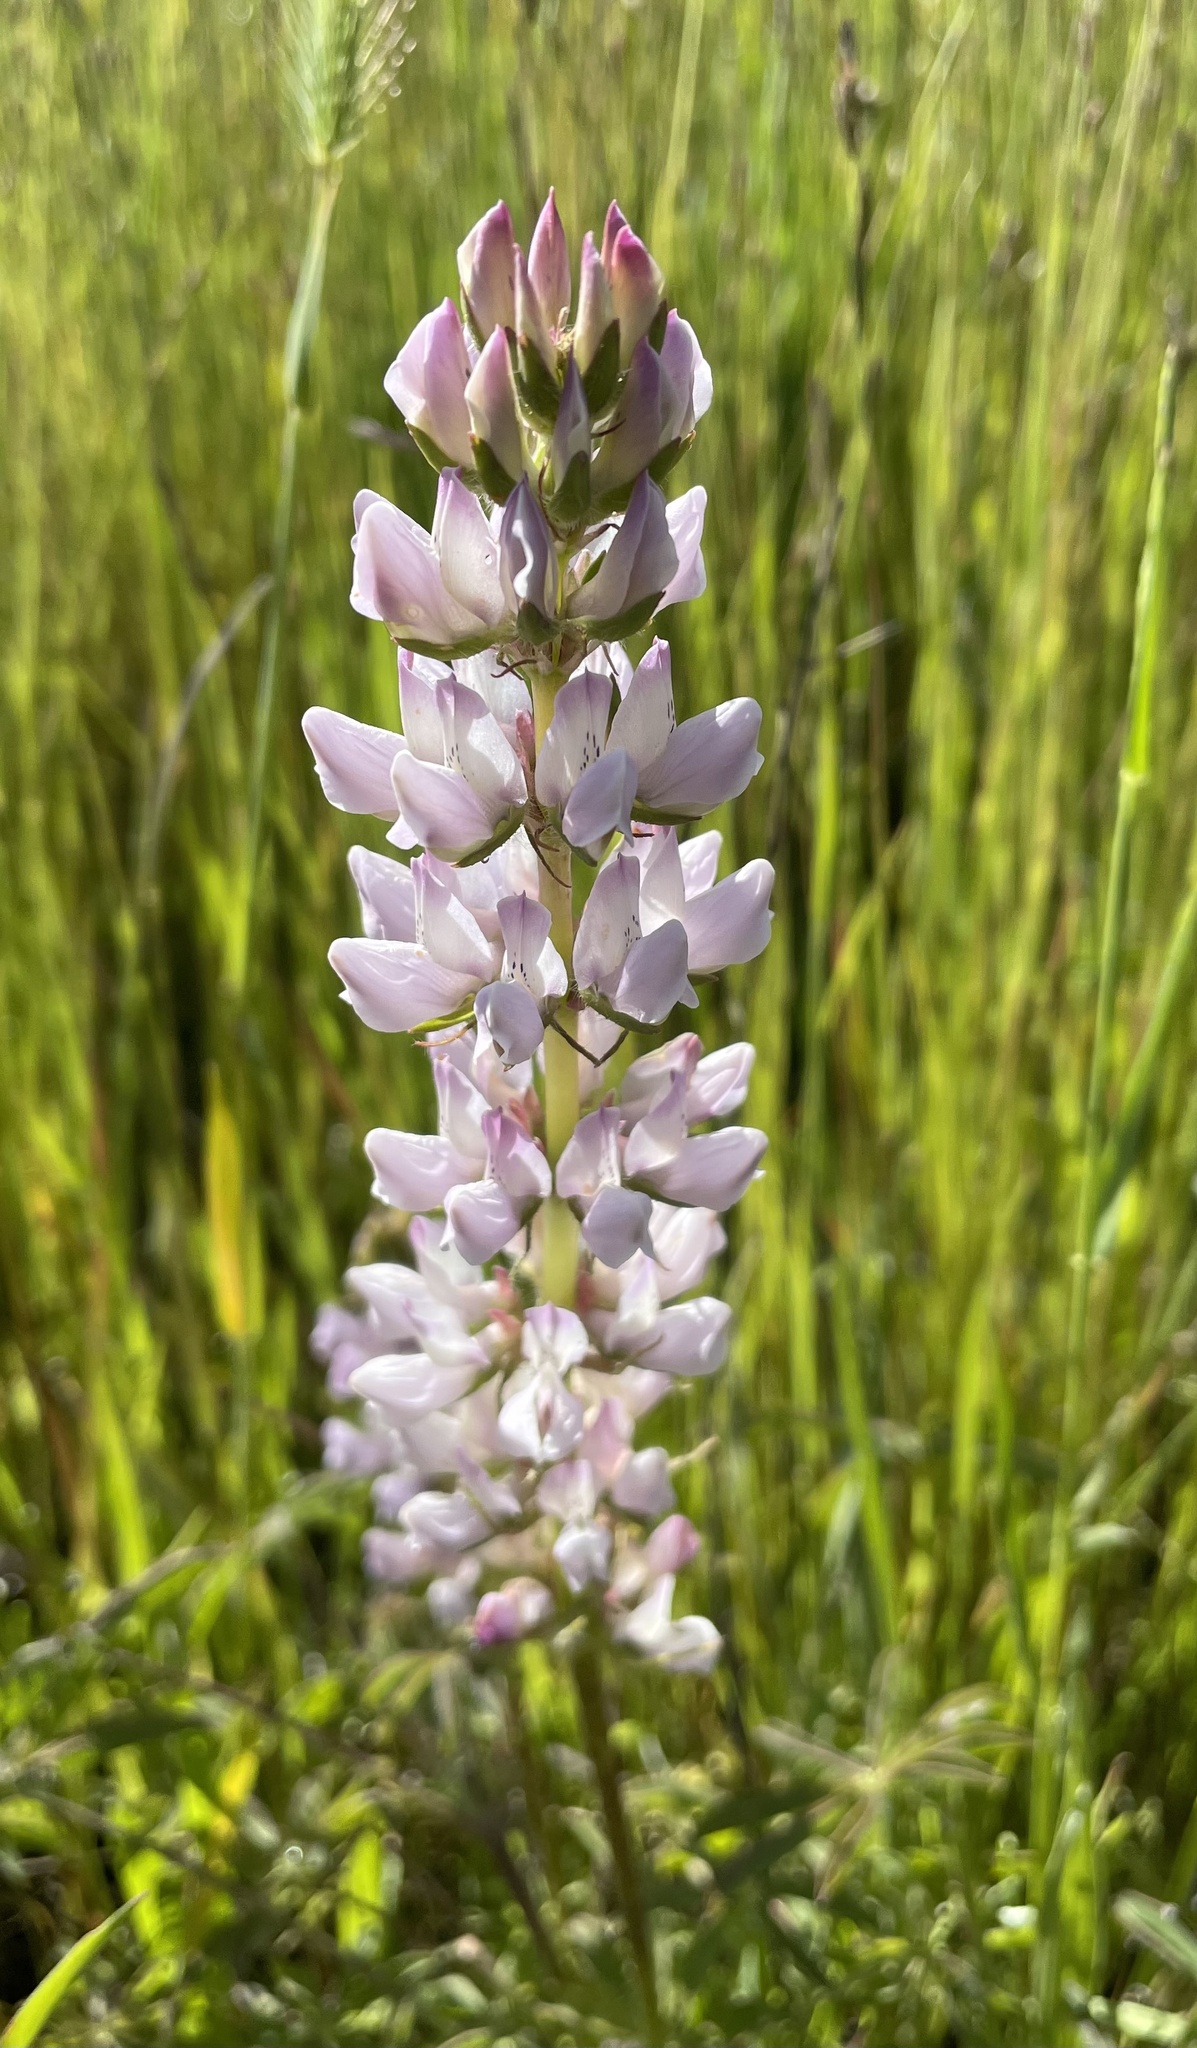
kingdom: Plantae
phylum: Tracheophyta
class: Magnoliopsida
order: Fabales
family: Fabaceae
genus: Lupinus
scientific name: Lupinus microcarpus
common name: Chick lupine
